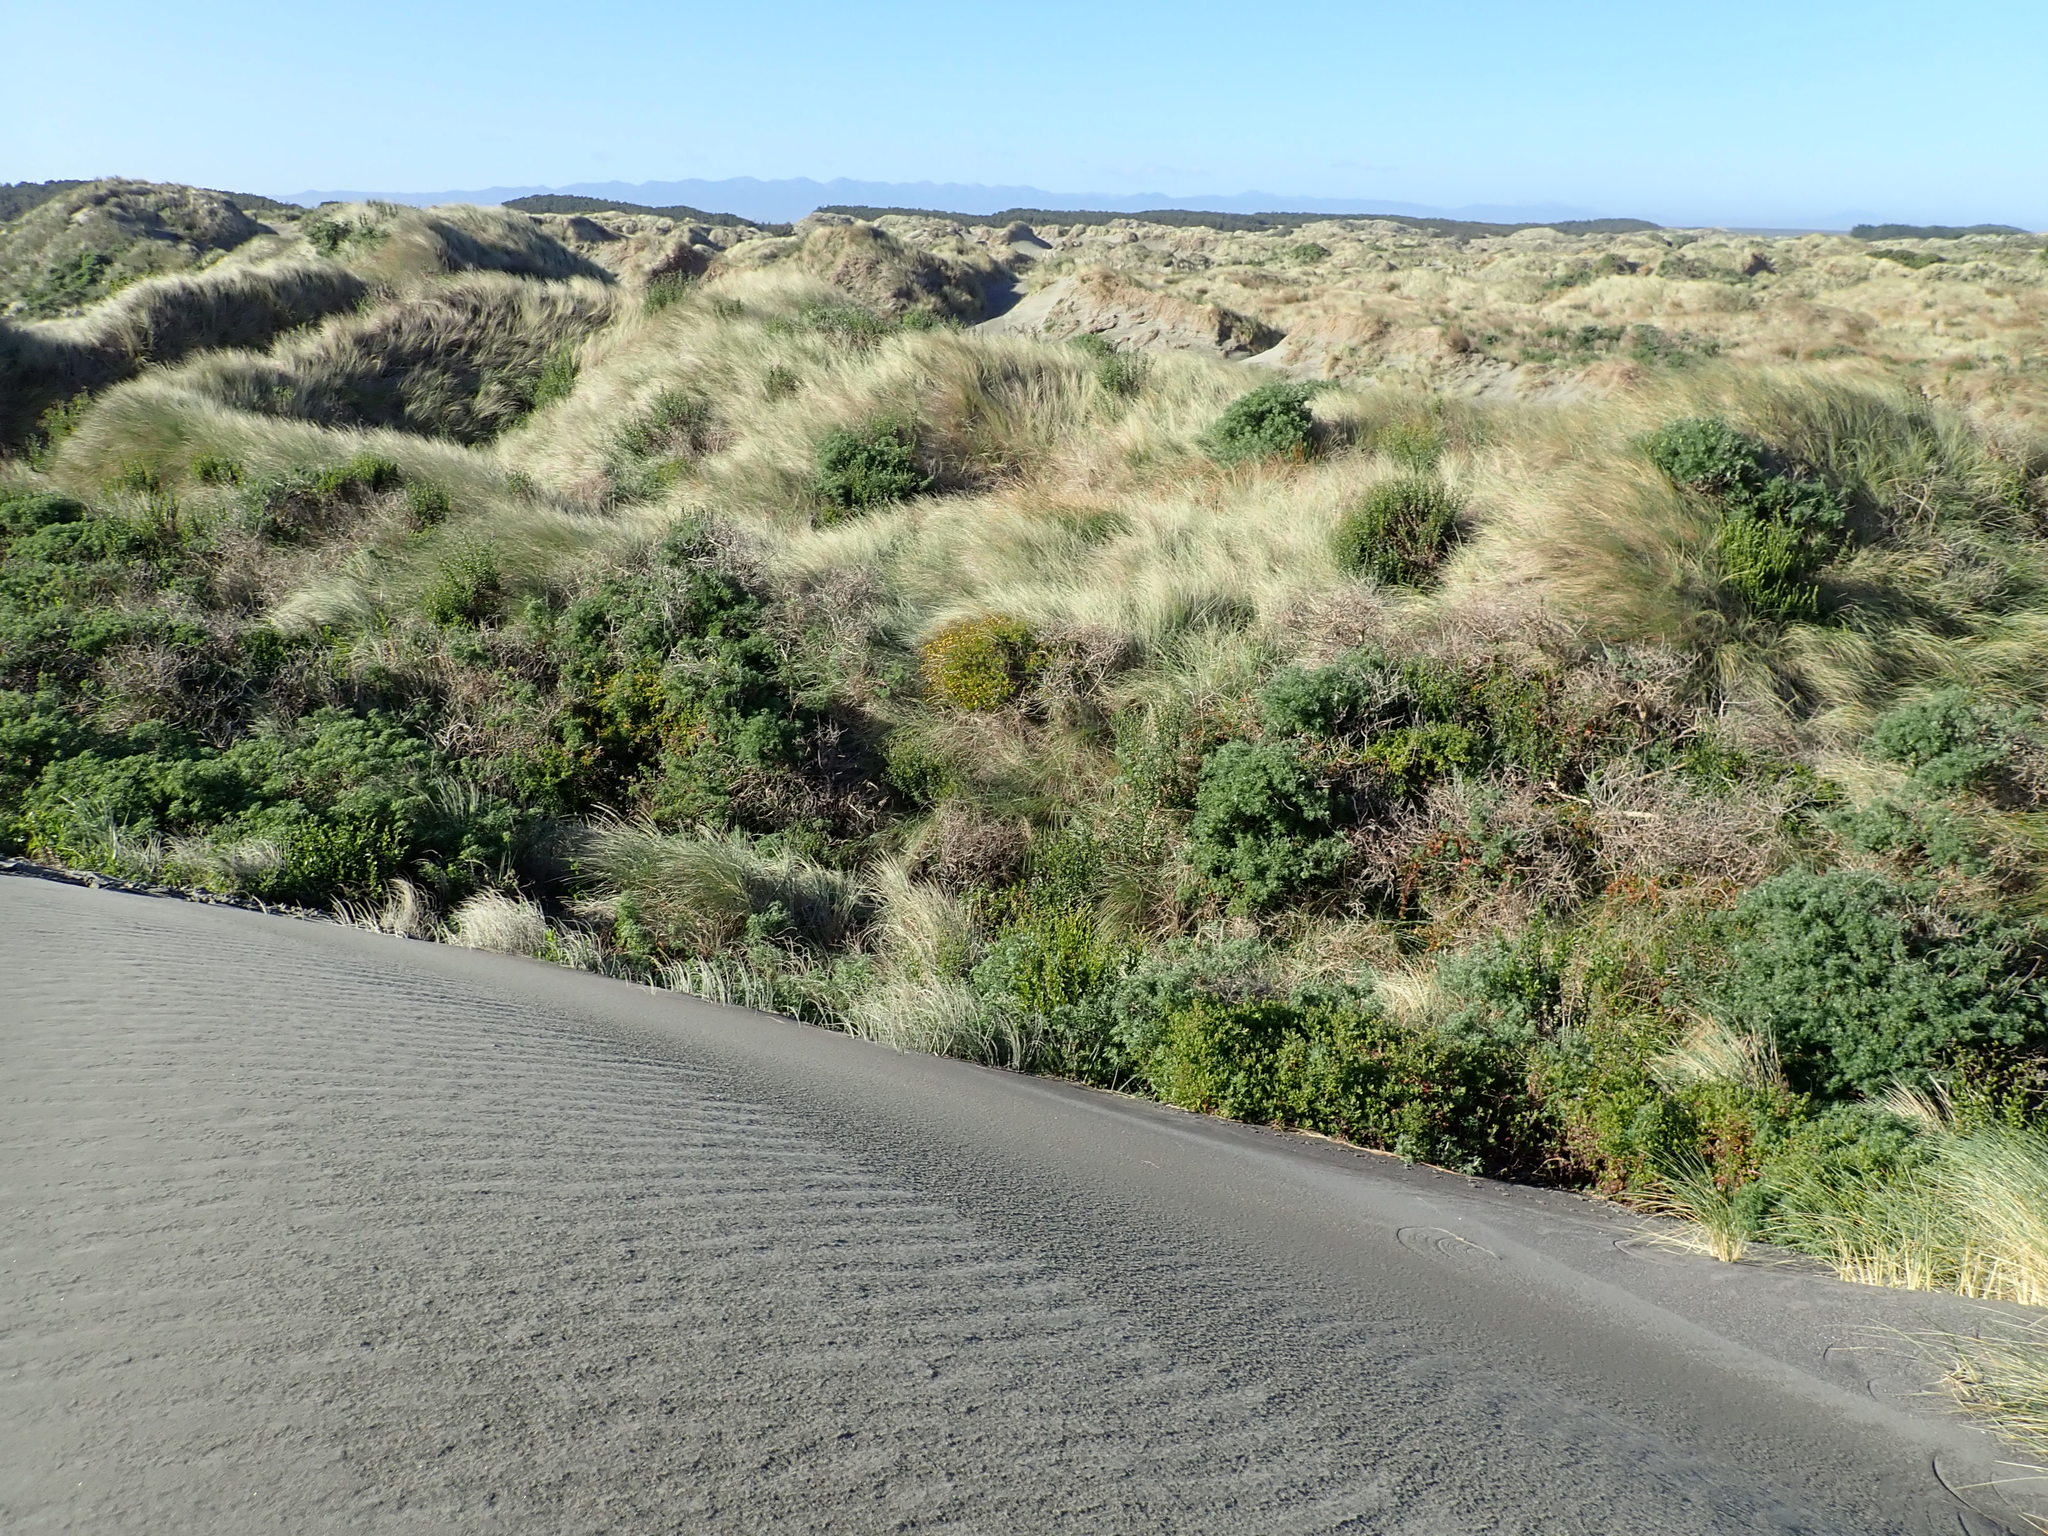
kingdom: Plantae
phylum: Tracheophyta
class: Magnoliopsida
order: Asterales
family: Asteraceae
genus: Senecio
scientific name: Senecio skirrhodon
